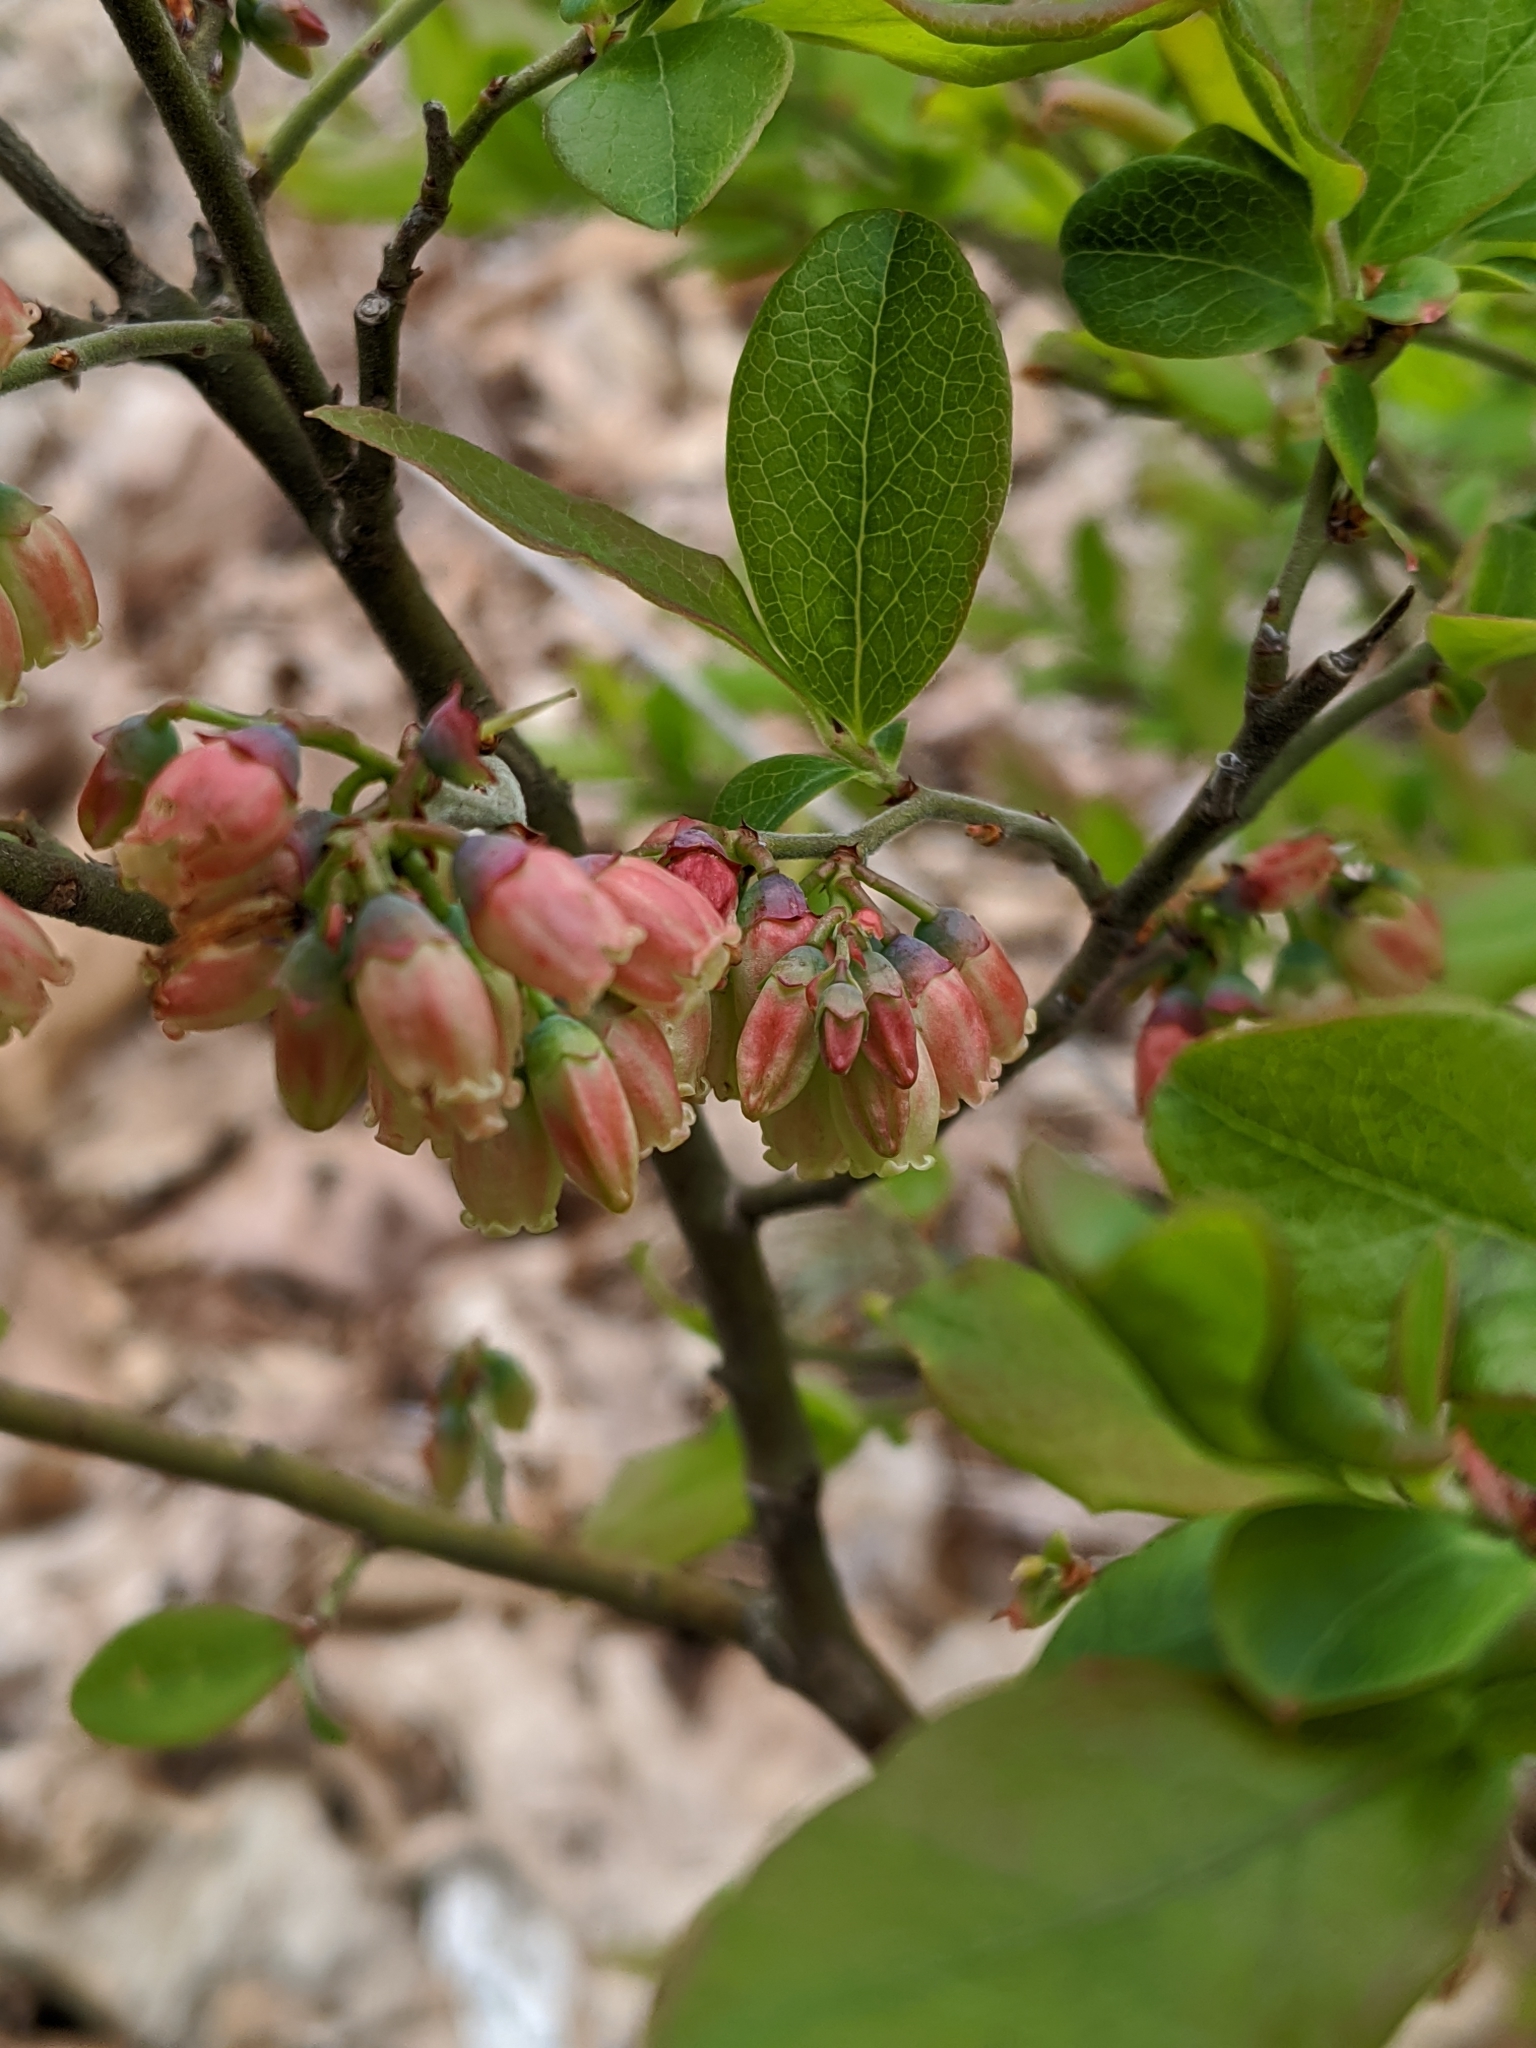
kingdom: Plantae
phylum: Tracheophyta
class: Magnoliopsida
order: Ericales
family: Ericaceae
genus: Vaccinium
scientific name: Vaccinium pallidum
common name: Blue ridge blueberry
